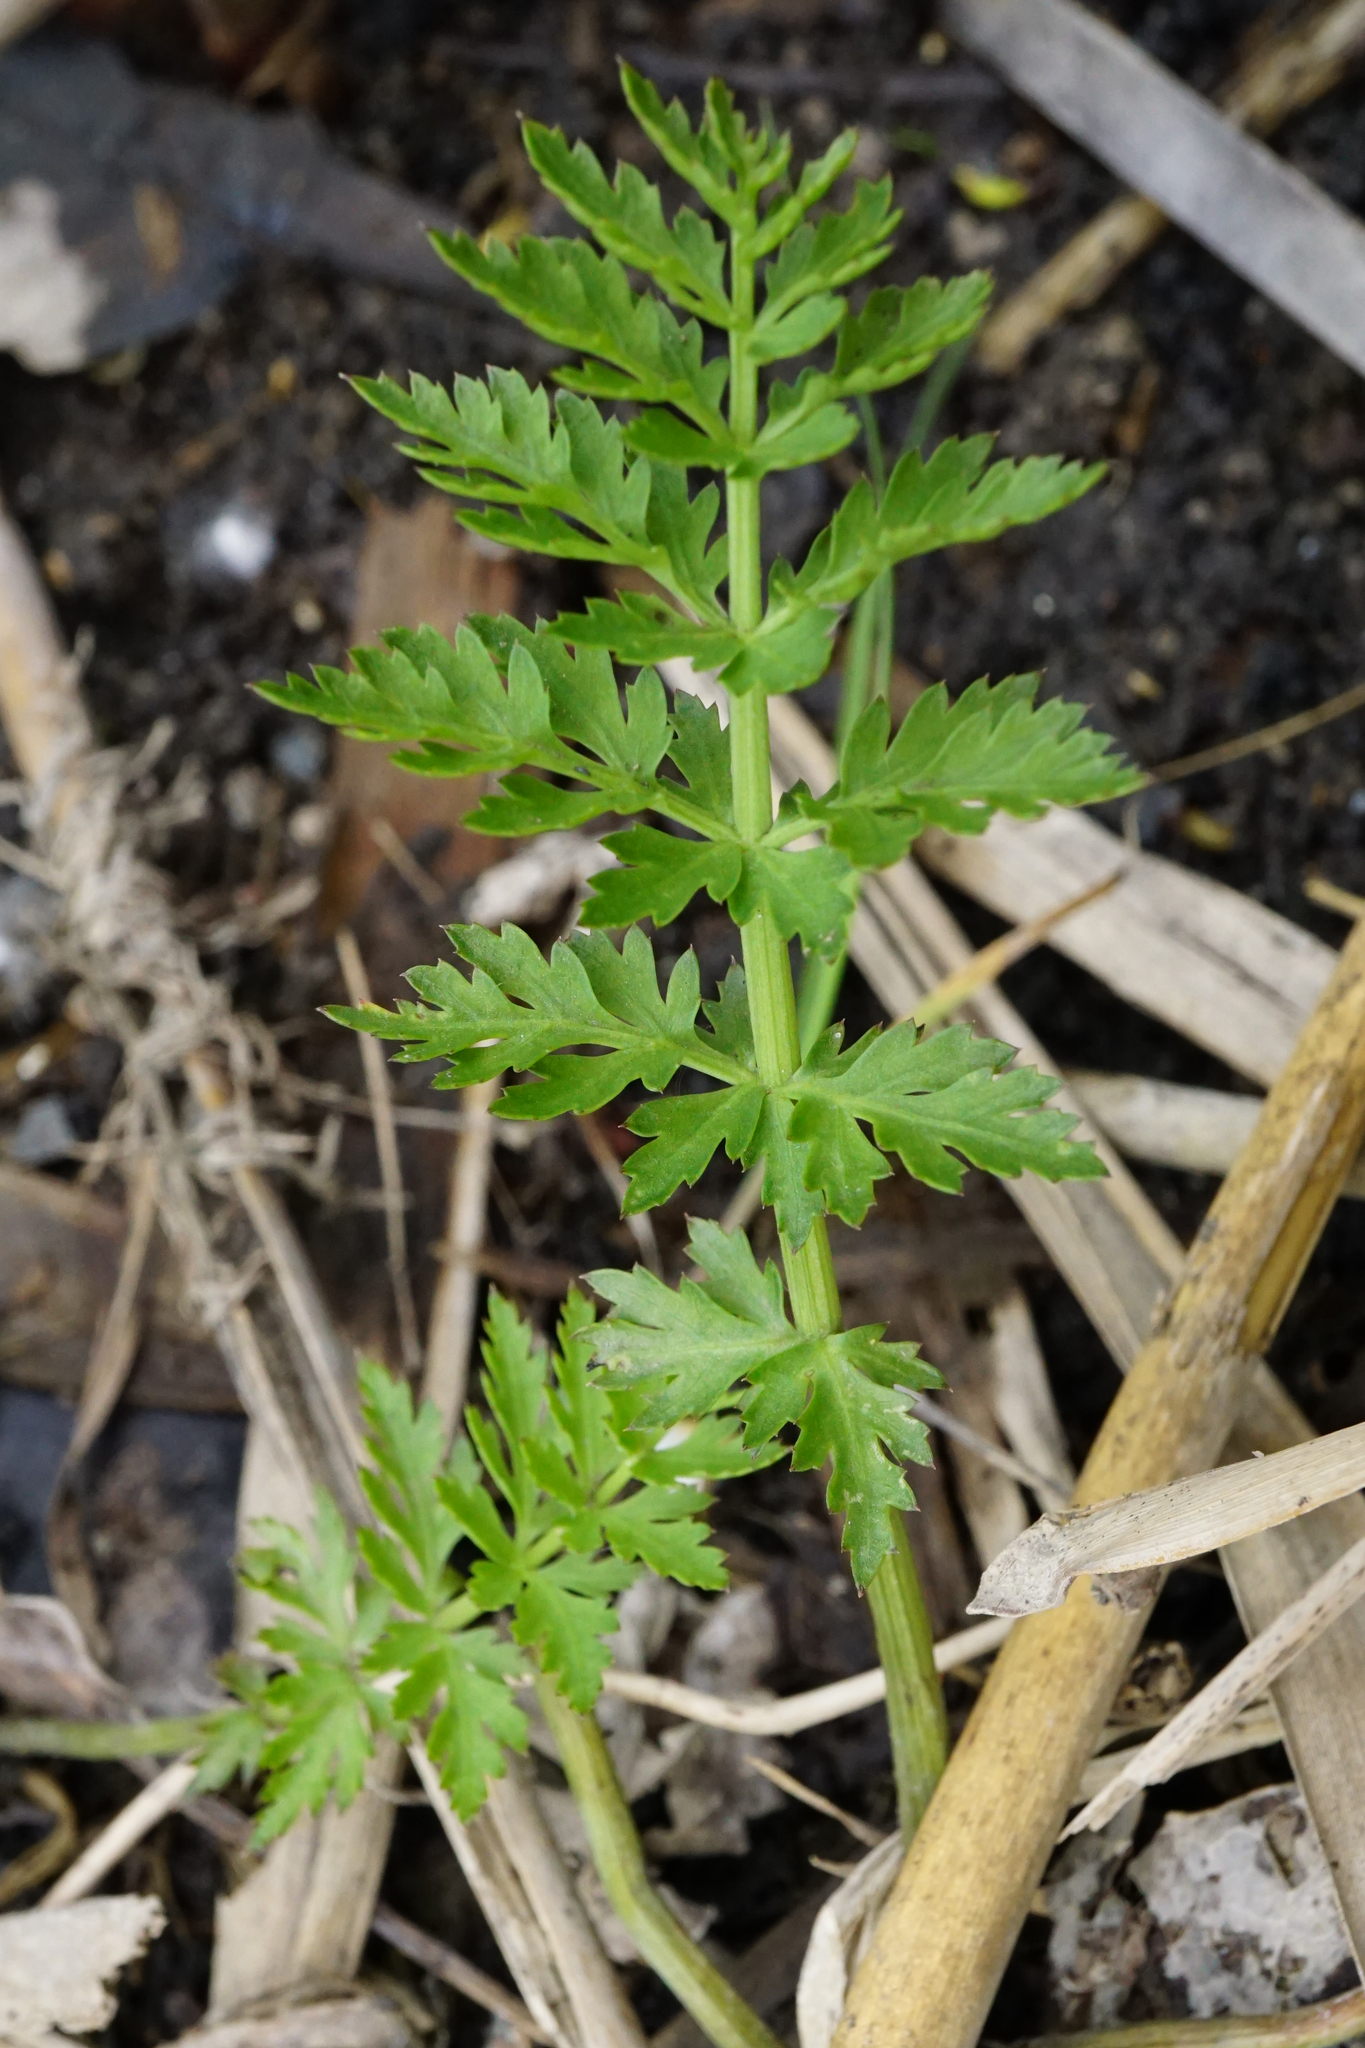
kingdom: Plantae
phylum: Tracheophyta
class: Magnoliopsida
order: Apiales
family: Apiaceae
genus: Sium
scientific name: Sium latifolium
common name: Greater water-parsnip
